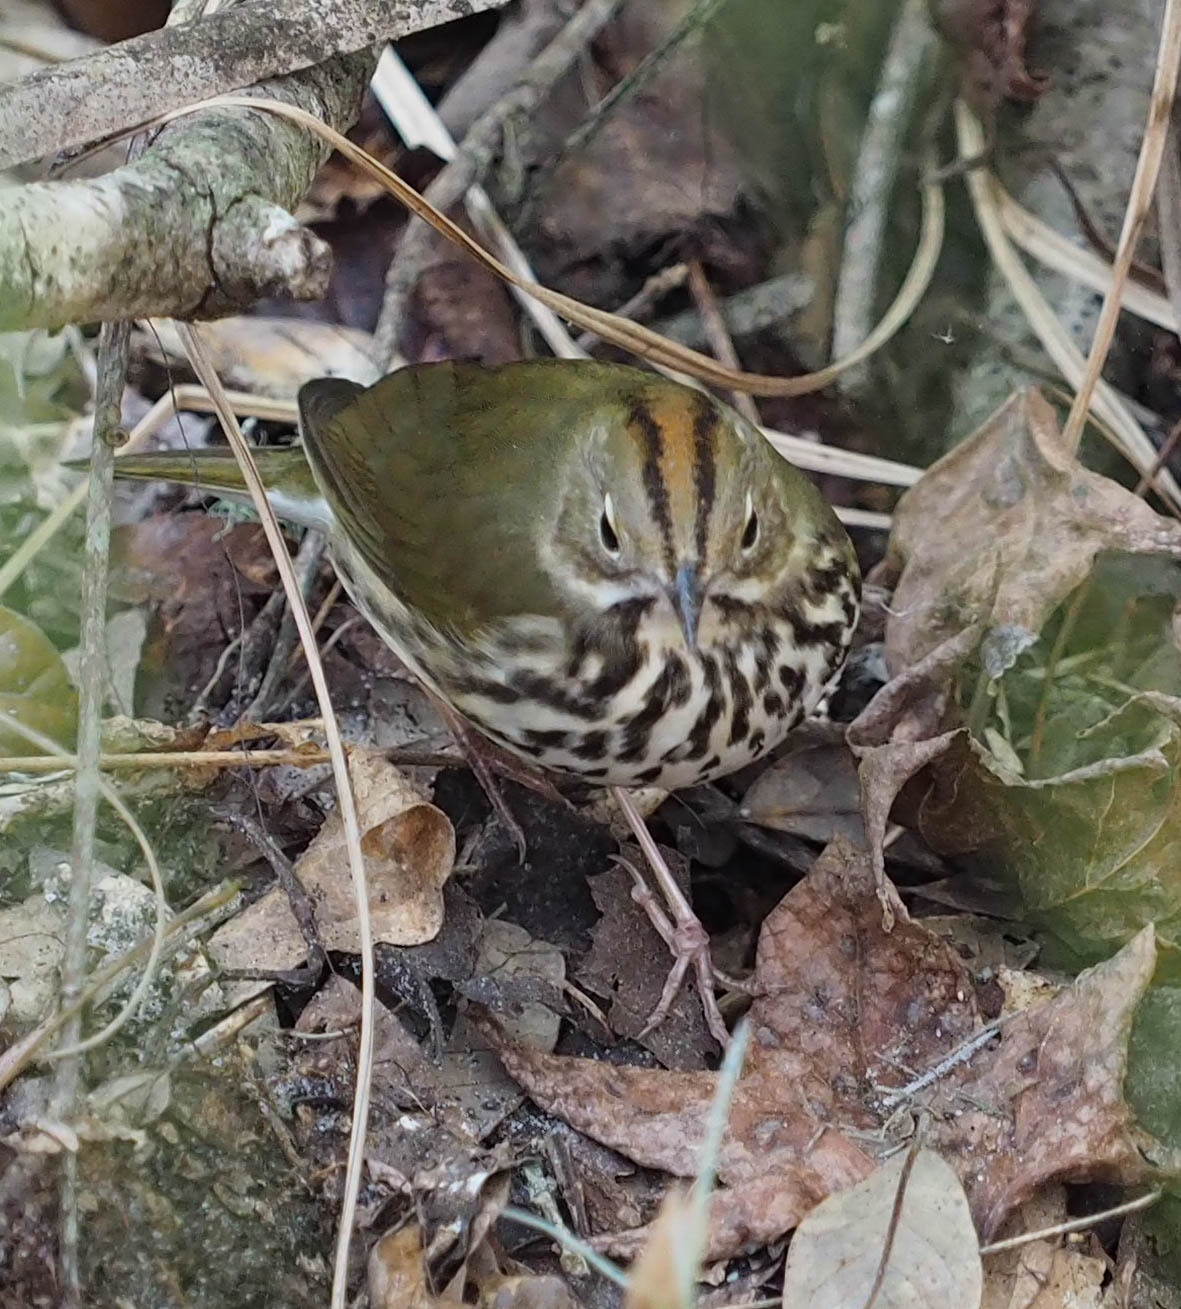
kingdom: Animalia
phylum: Chordata
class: Aves
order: Passeriformes
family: Parulidae
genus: Seiurus
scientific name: Seiurus aurocapilla
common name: Ovenbird
